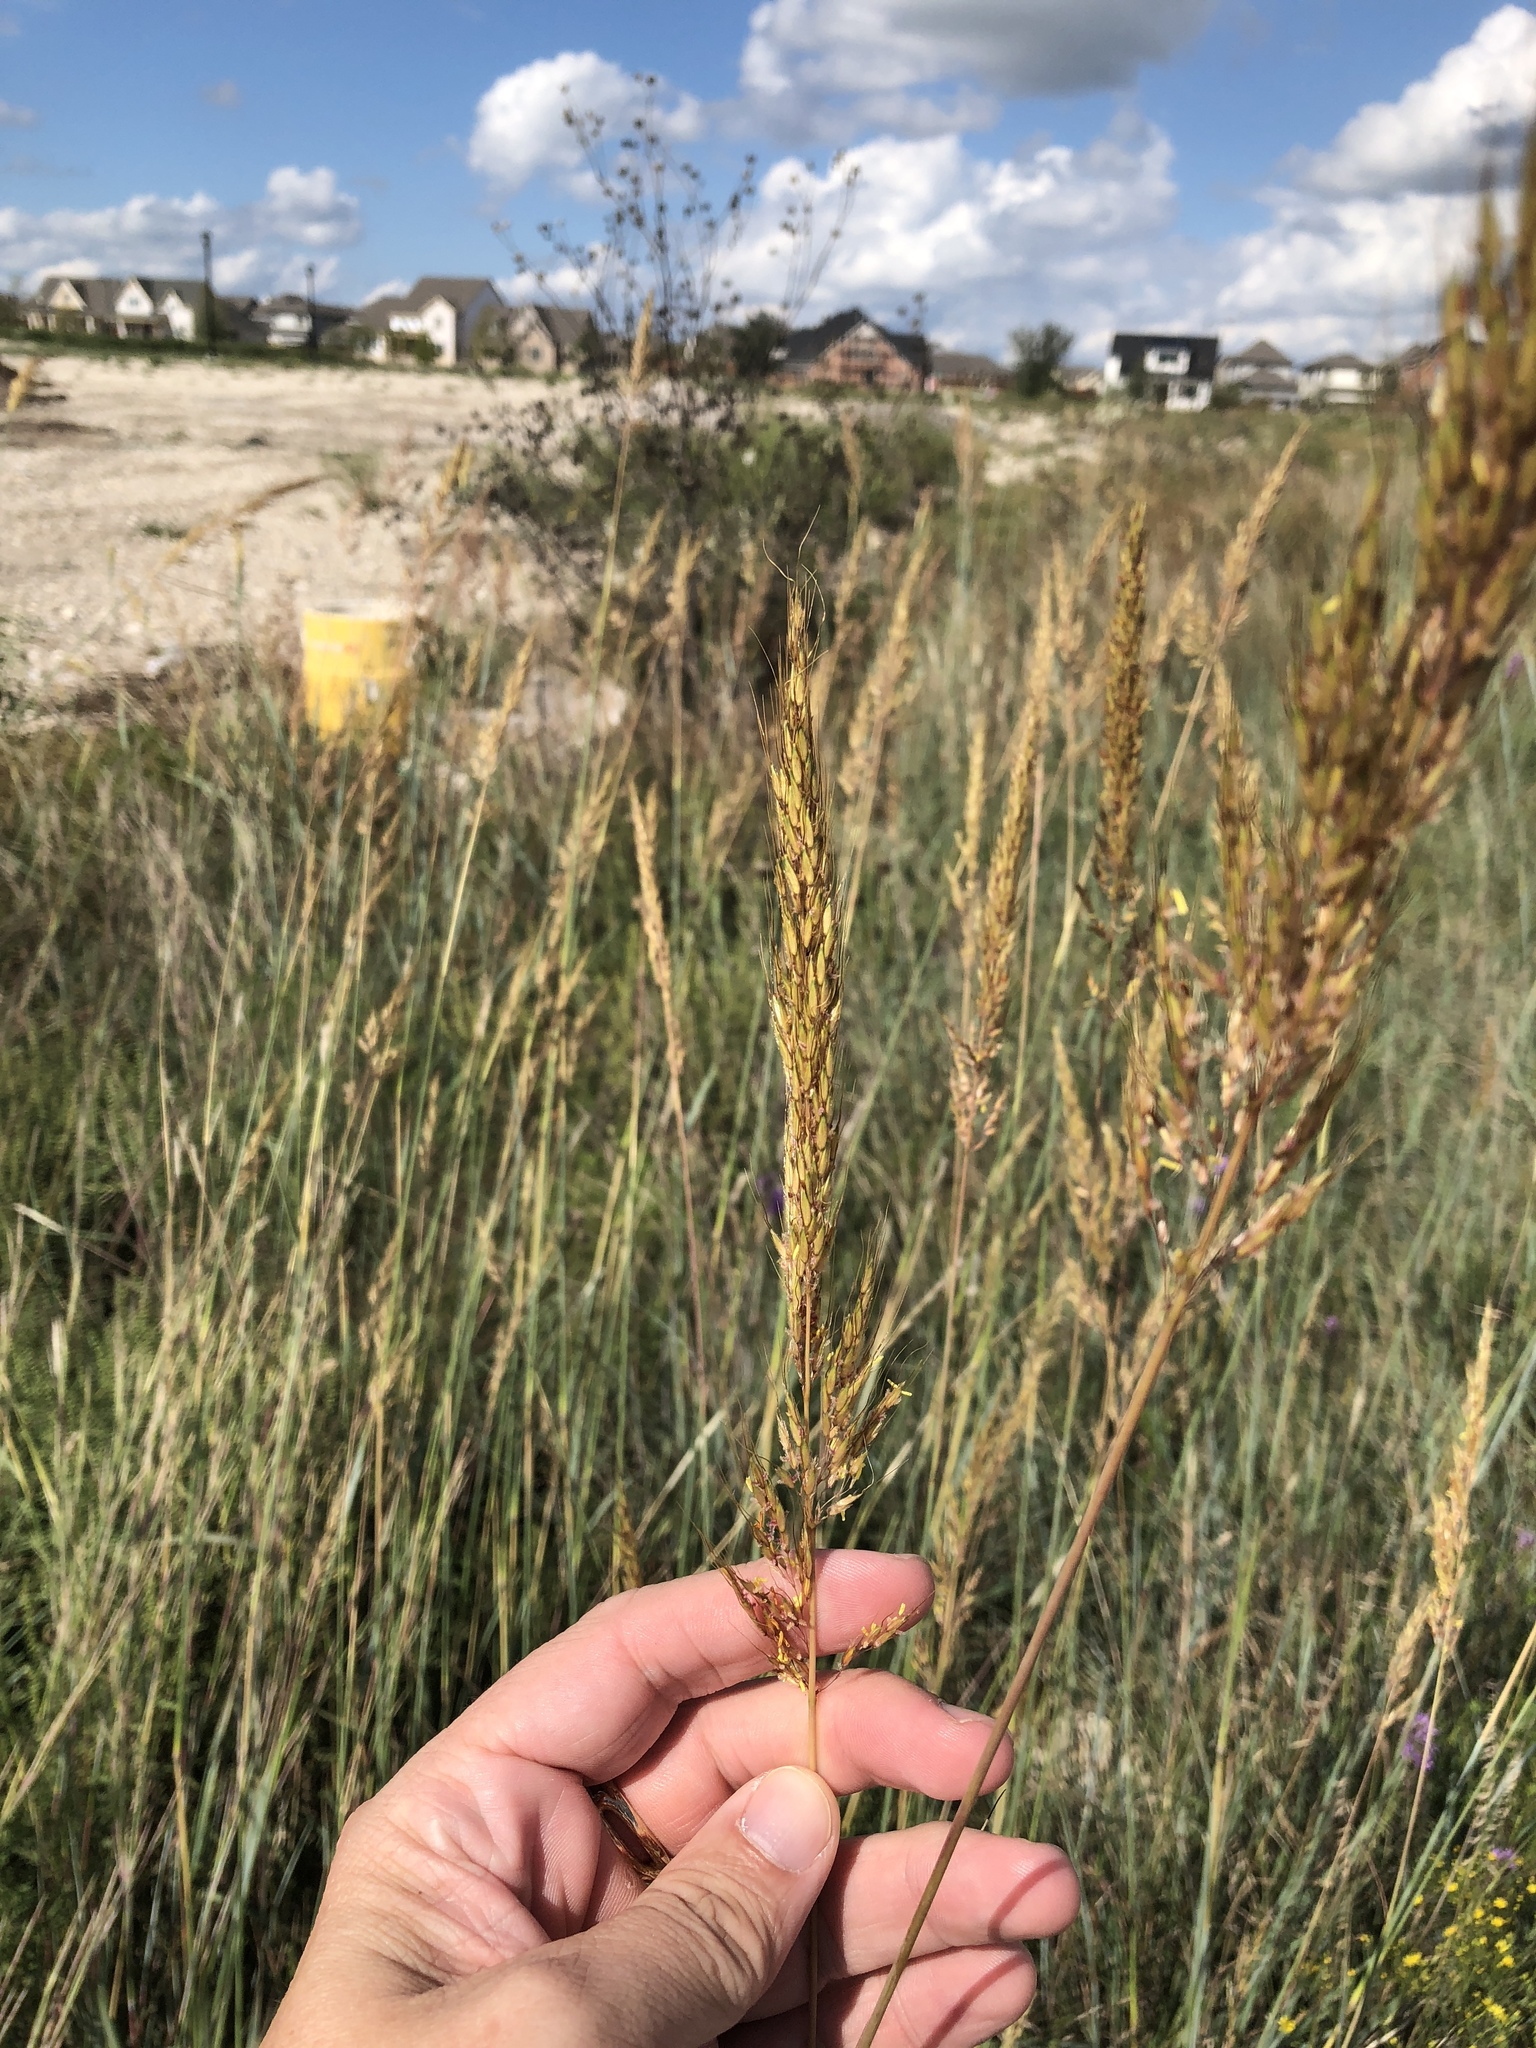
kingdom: Plantae
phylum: Tracheophyta
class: Liliopsida
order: Poales
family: Poaceae
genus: Sorghastrum
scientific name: Sorghastrum nutans
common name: Indian grass
